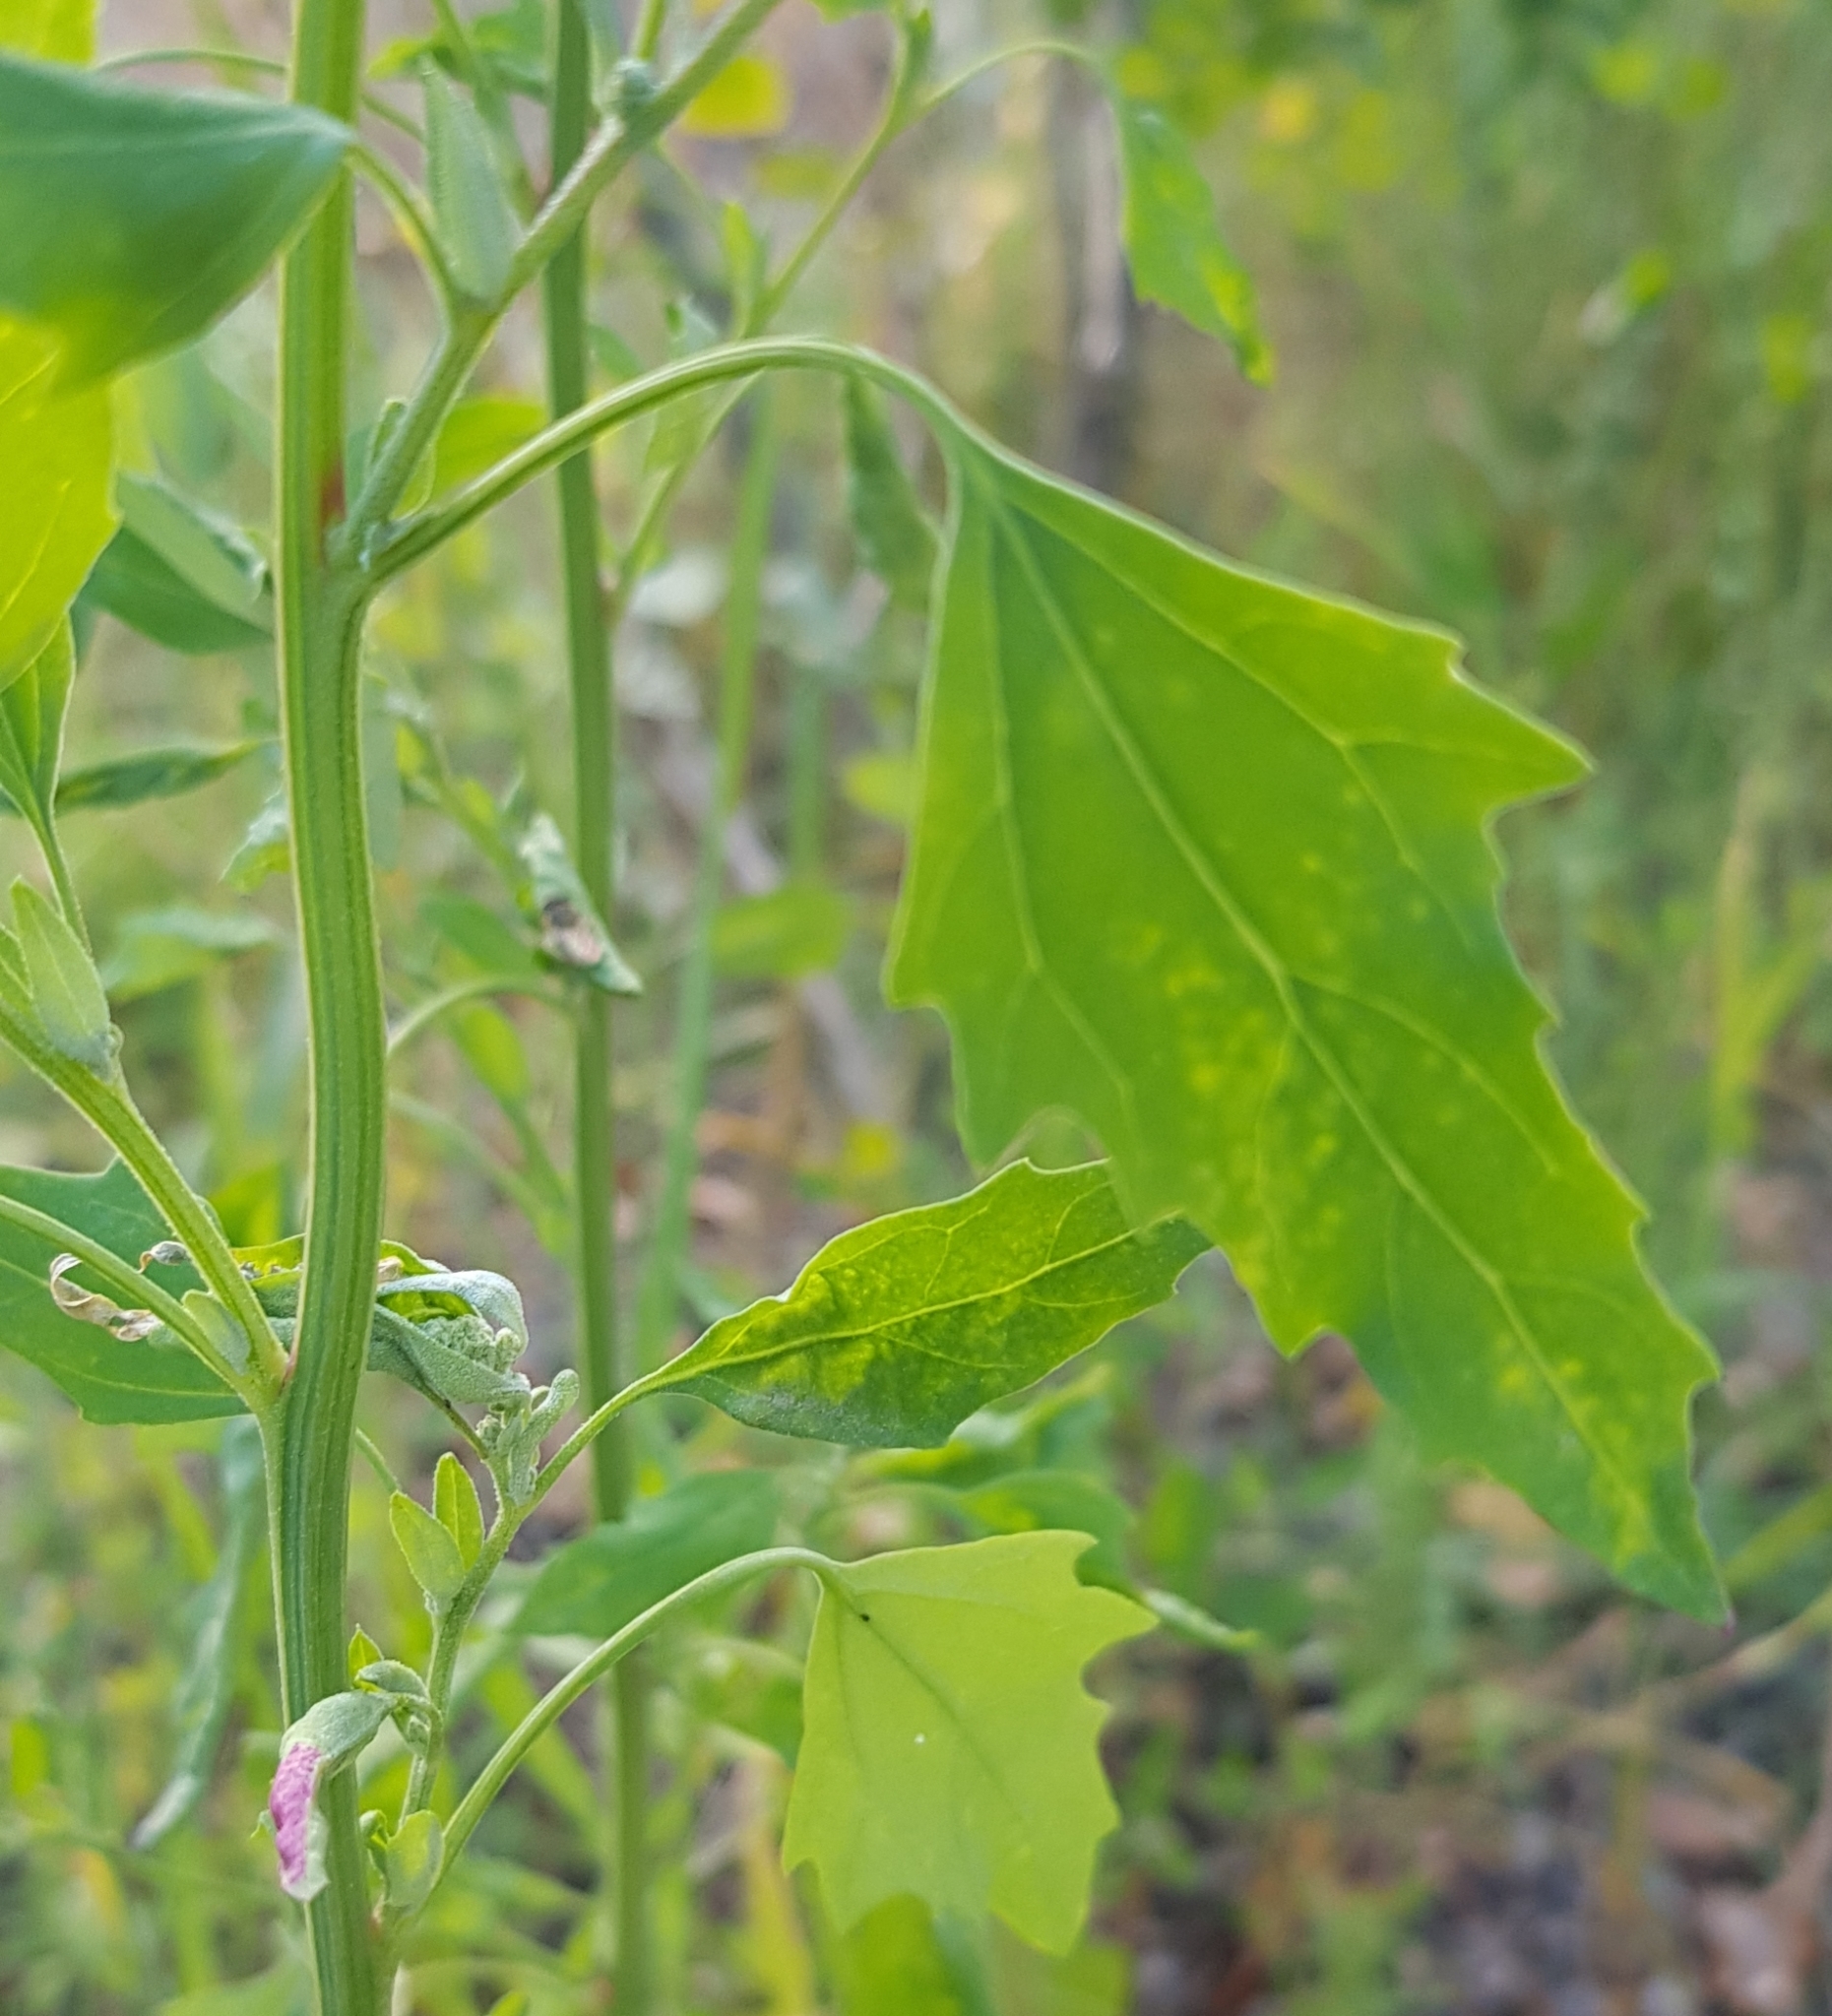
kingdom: Plantae
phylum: Tracheophyta
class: Magnoliopsida
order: Caryophyllales
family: Amaranthaceae
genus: Chenopodium
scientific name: Chenopodium album
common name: Fat-hen
